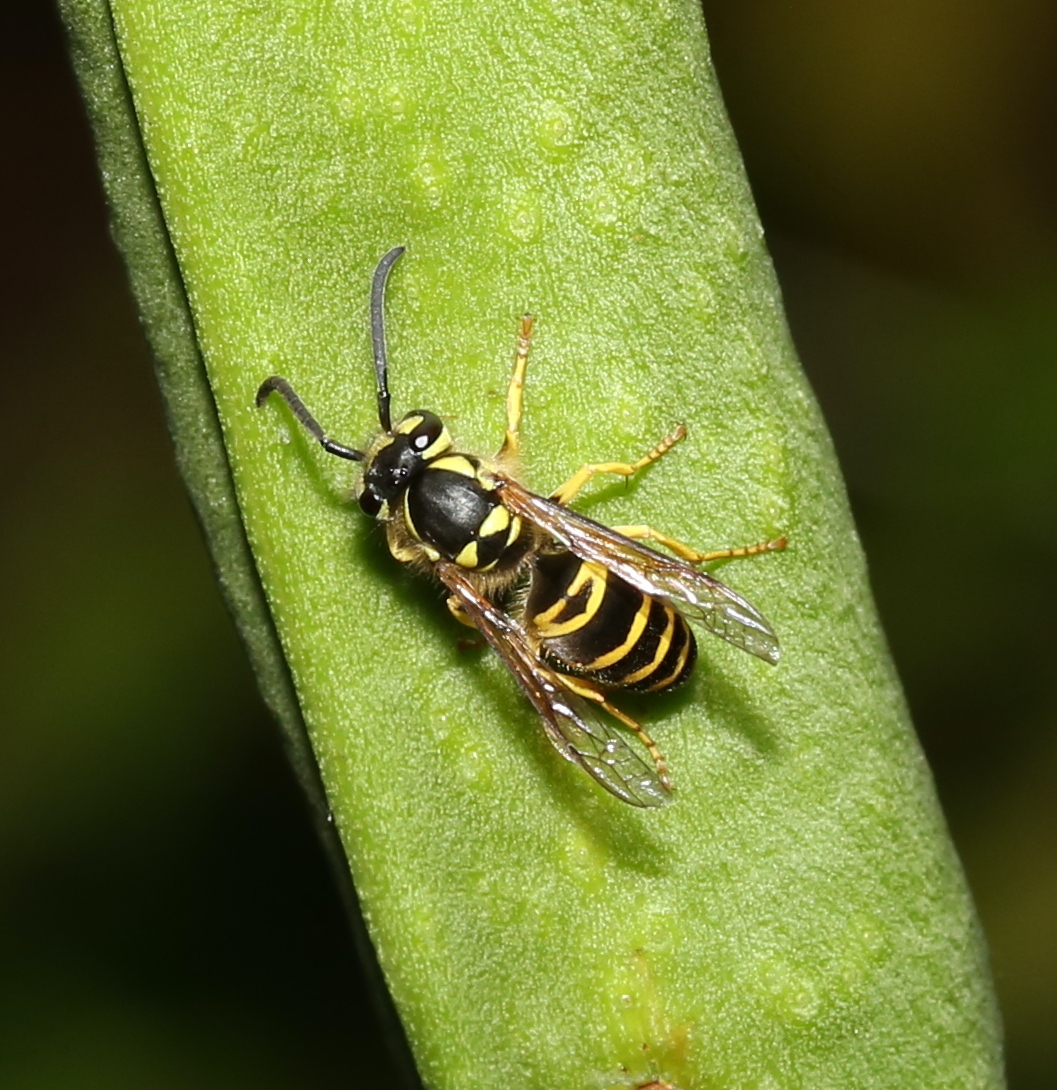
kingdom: Animalia
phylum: Arthropoda
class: Insecta
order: Hymenoptera
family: Vespidae
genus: Vespula
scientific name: Vespula maculifrons
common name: Eastern yellowjacket
